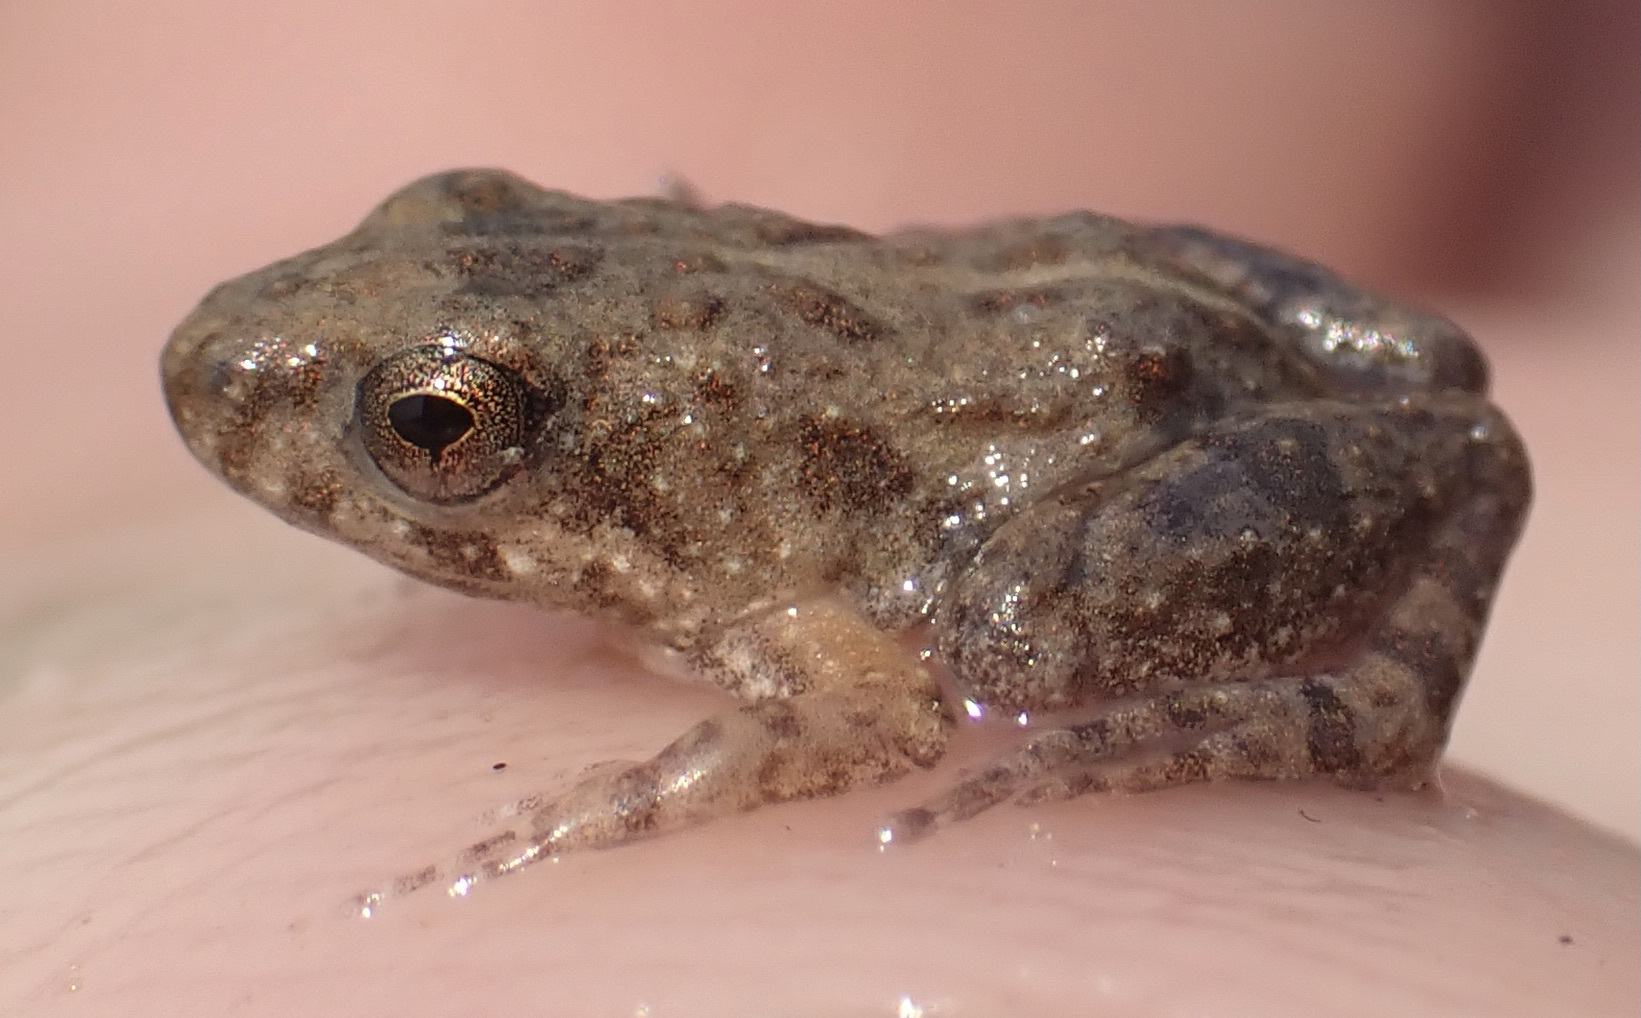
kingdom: Animalia
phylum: Chordata
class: Amphibia
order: Anura
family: Phrynobatrachidae
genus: Phrynobatrachus
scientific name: Phrynobatrachus mababiensis
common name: Dwarf puddle frog
